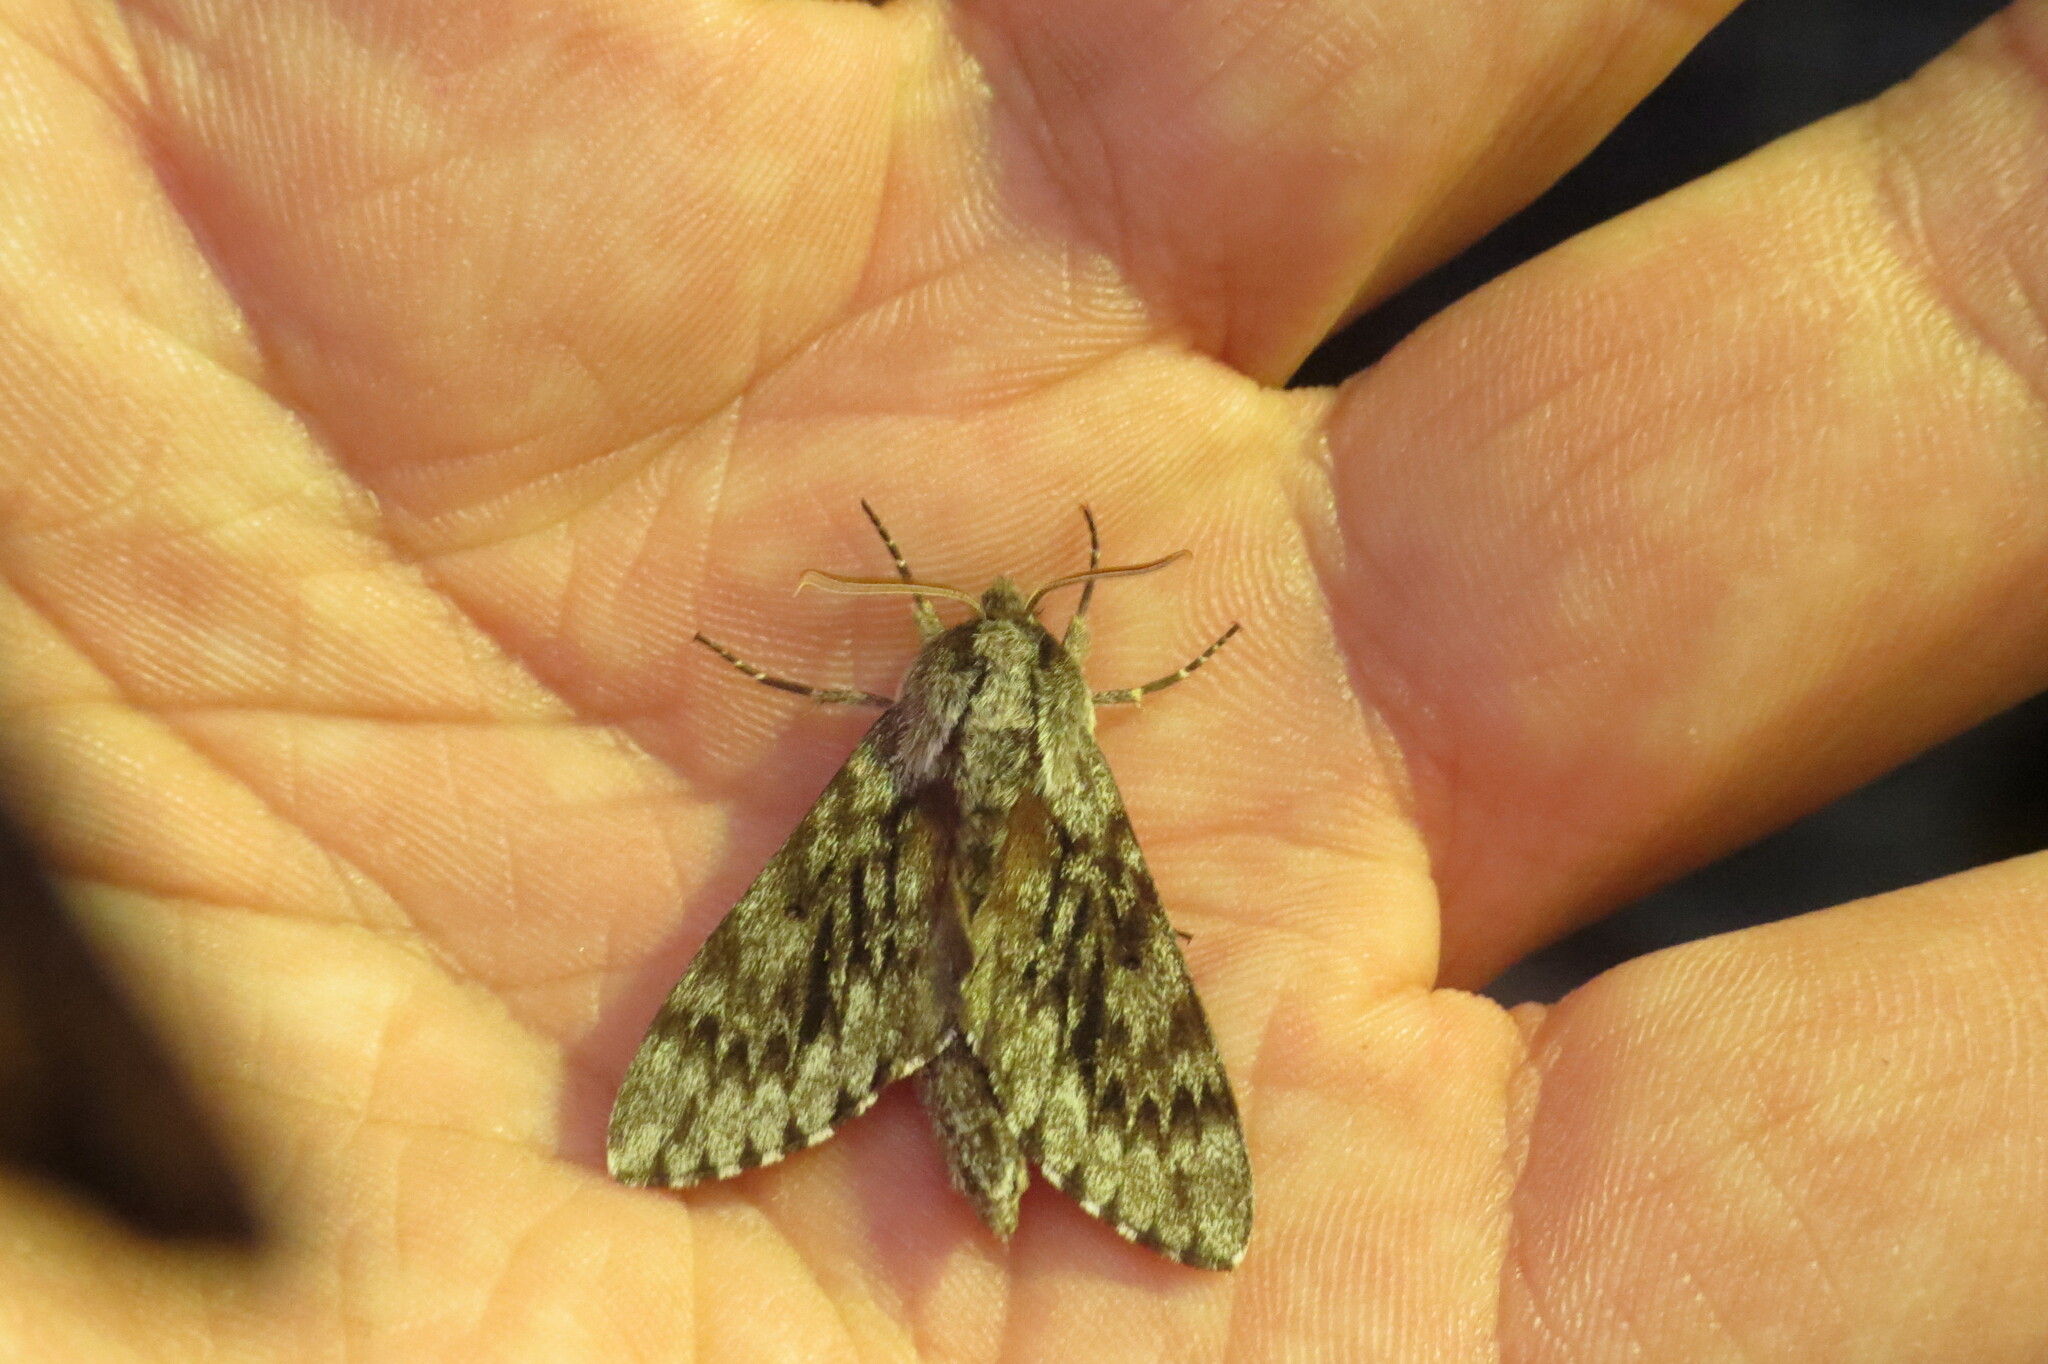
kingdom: Animalia
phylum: Arthropoda
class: Insecta
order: Lepidoptera
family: Sphingidae
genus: Lapara
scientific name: Lapara bombycoides
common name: Northern pine sphinx
